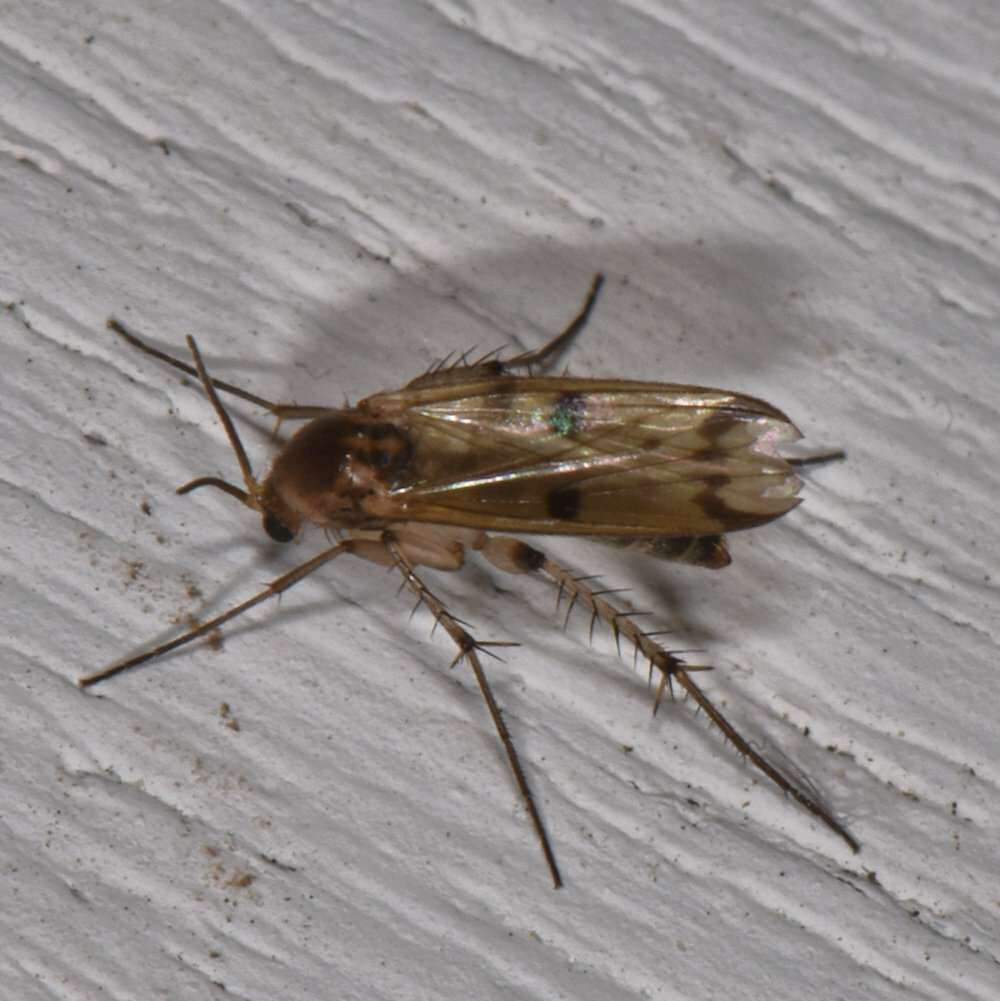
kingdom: Animalia
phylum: Arthropoda
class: Insecta
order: Diptera
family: Mycetophilidae
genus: Mycetophila
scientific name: Mycetophila sigmoides
